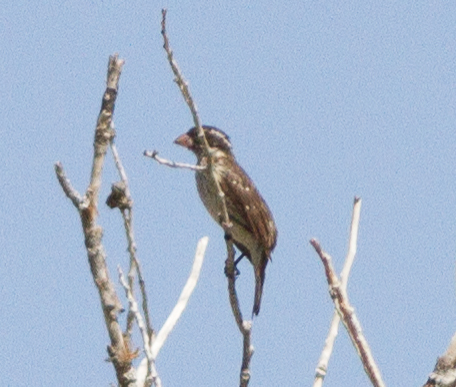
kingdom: Animalia
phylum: Chordata
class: Aves
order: Passeriformes
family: Cardinalidae
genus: Pheucticus
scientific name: Pheucticus ludovicianus
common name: Rose-breasted grosbeak
